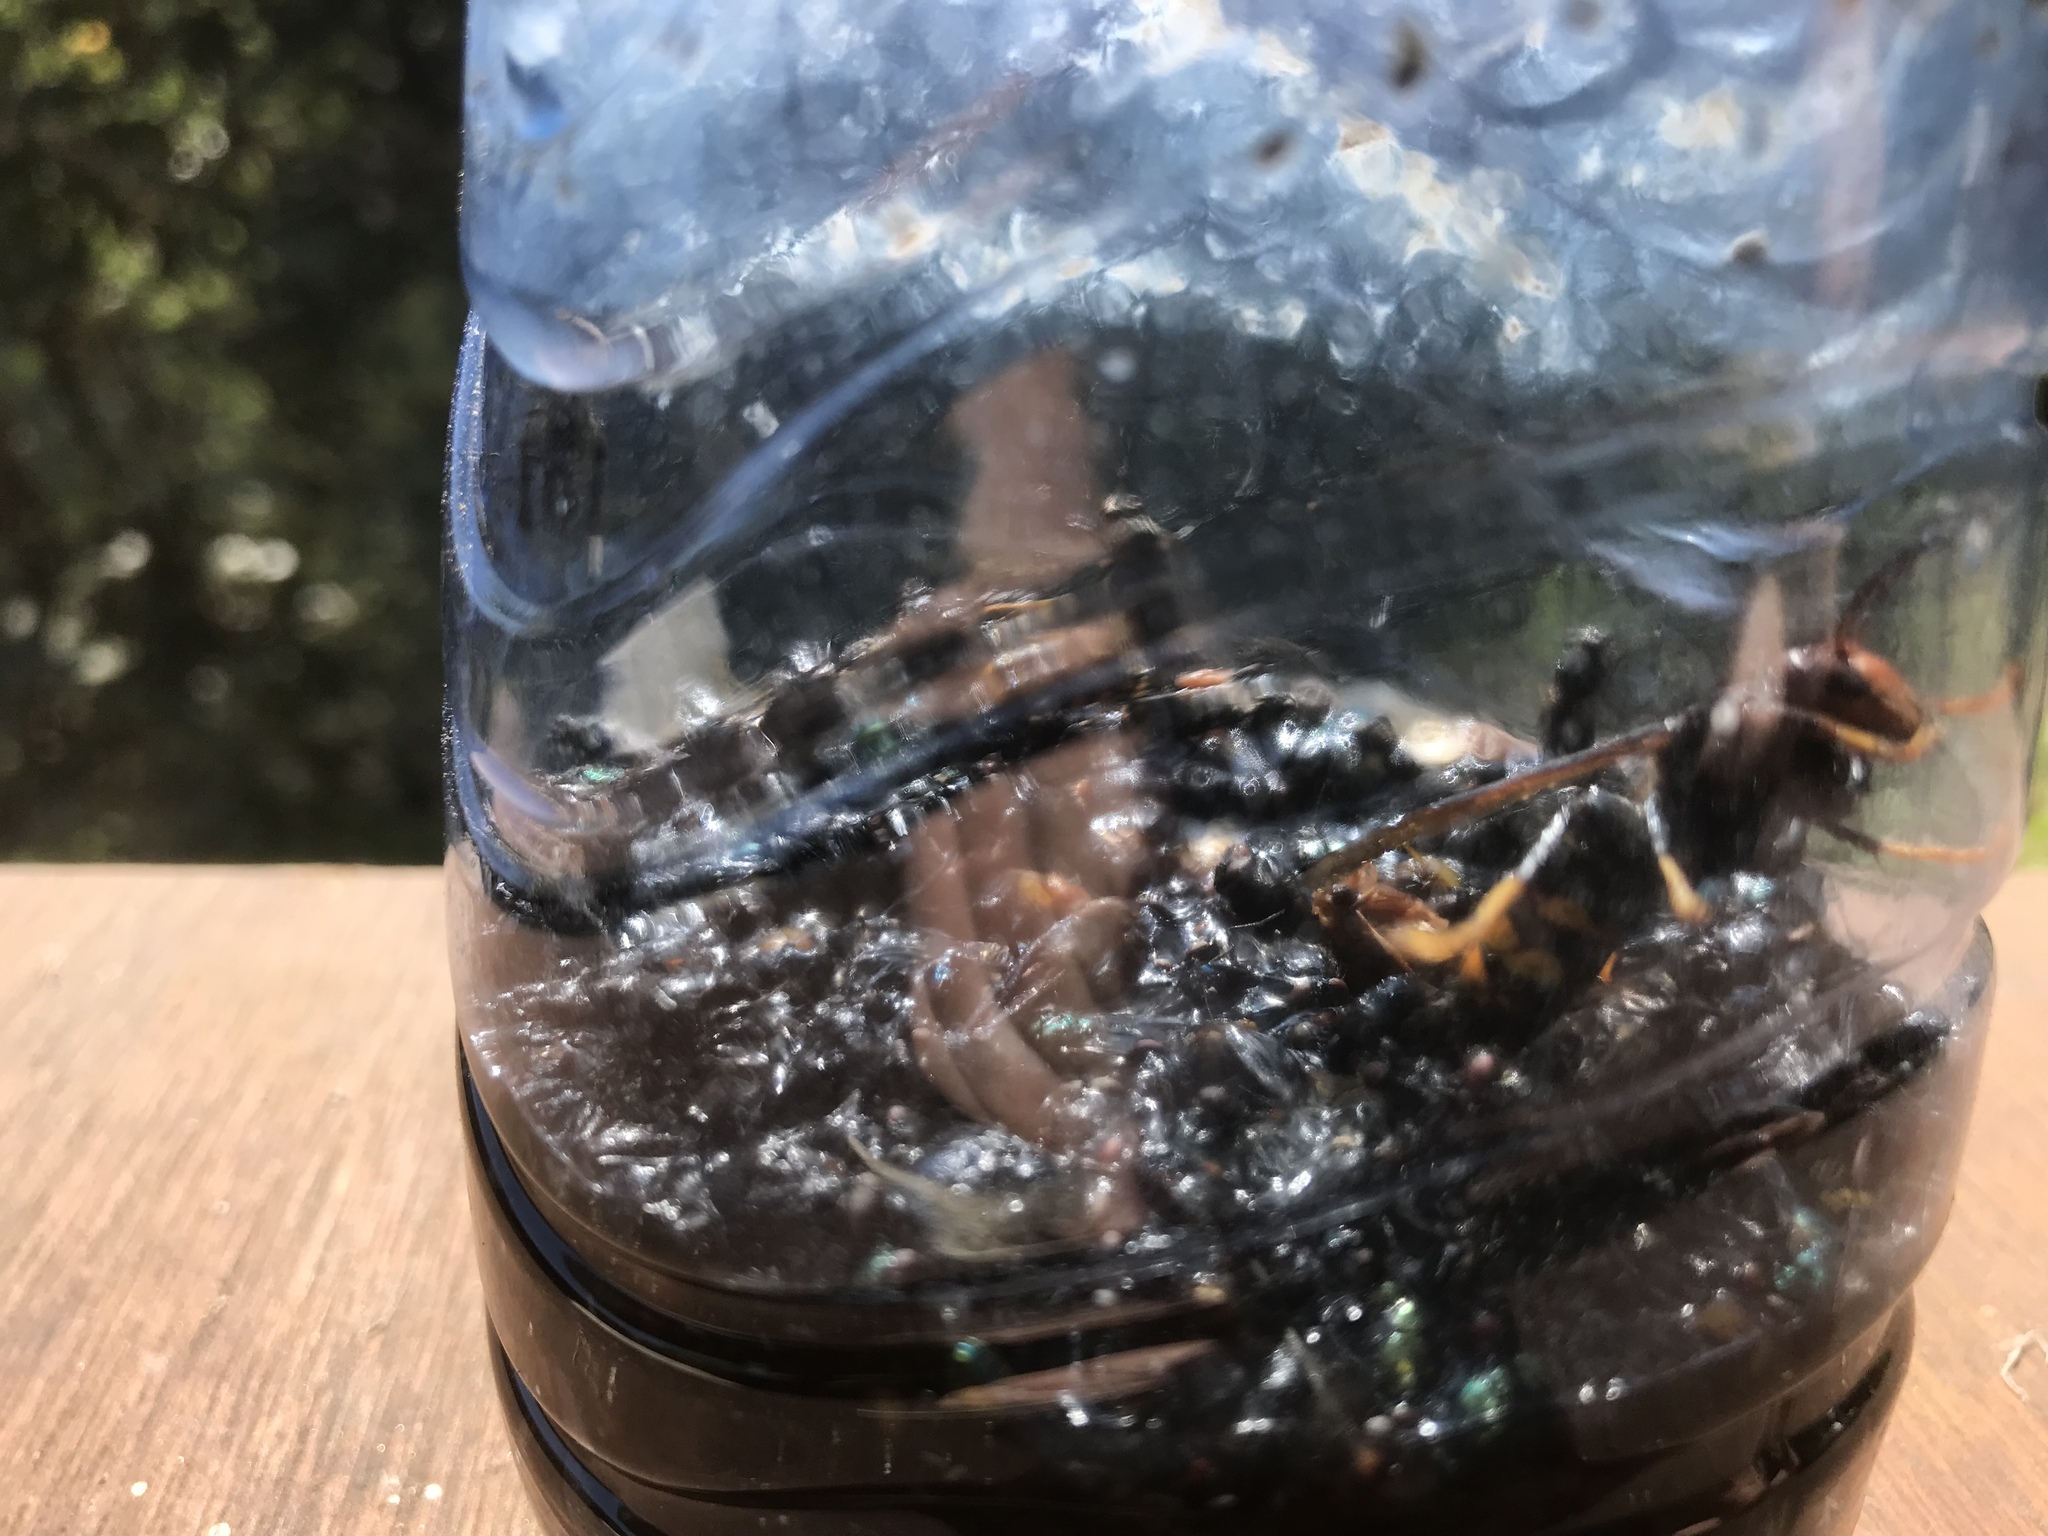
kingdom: Animalia
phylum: Arthropoda
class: Insecta
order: Hymenoptera
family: Vespidae
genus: Vespa
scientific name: Vespa velutina
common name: Asian hornet
